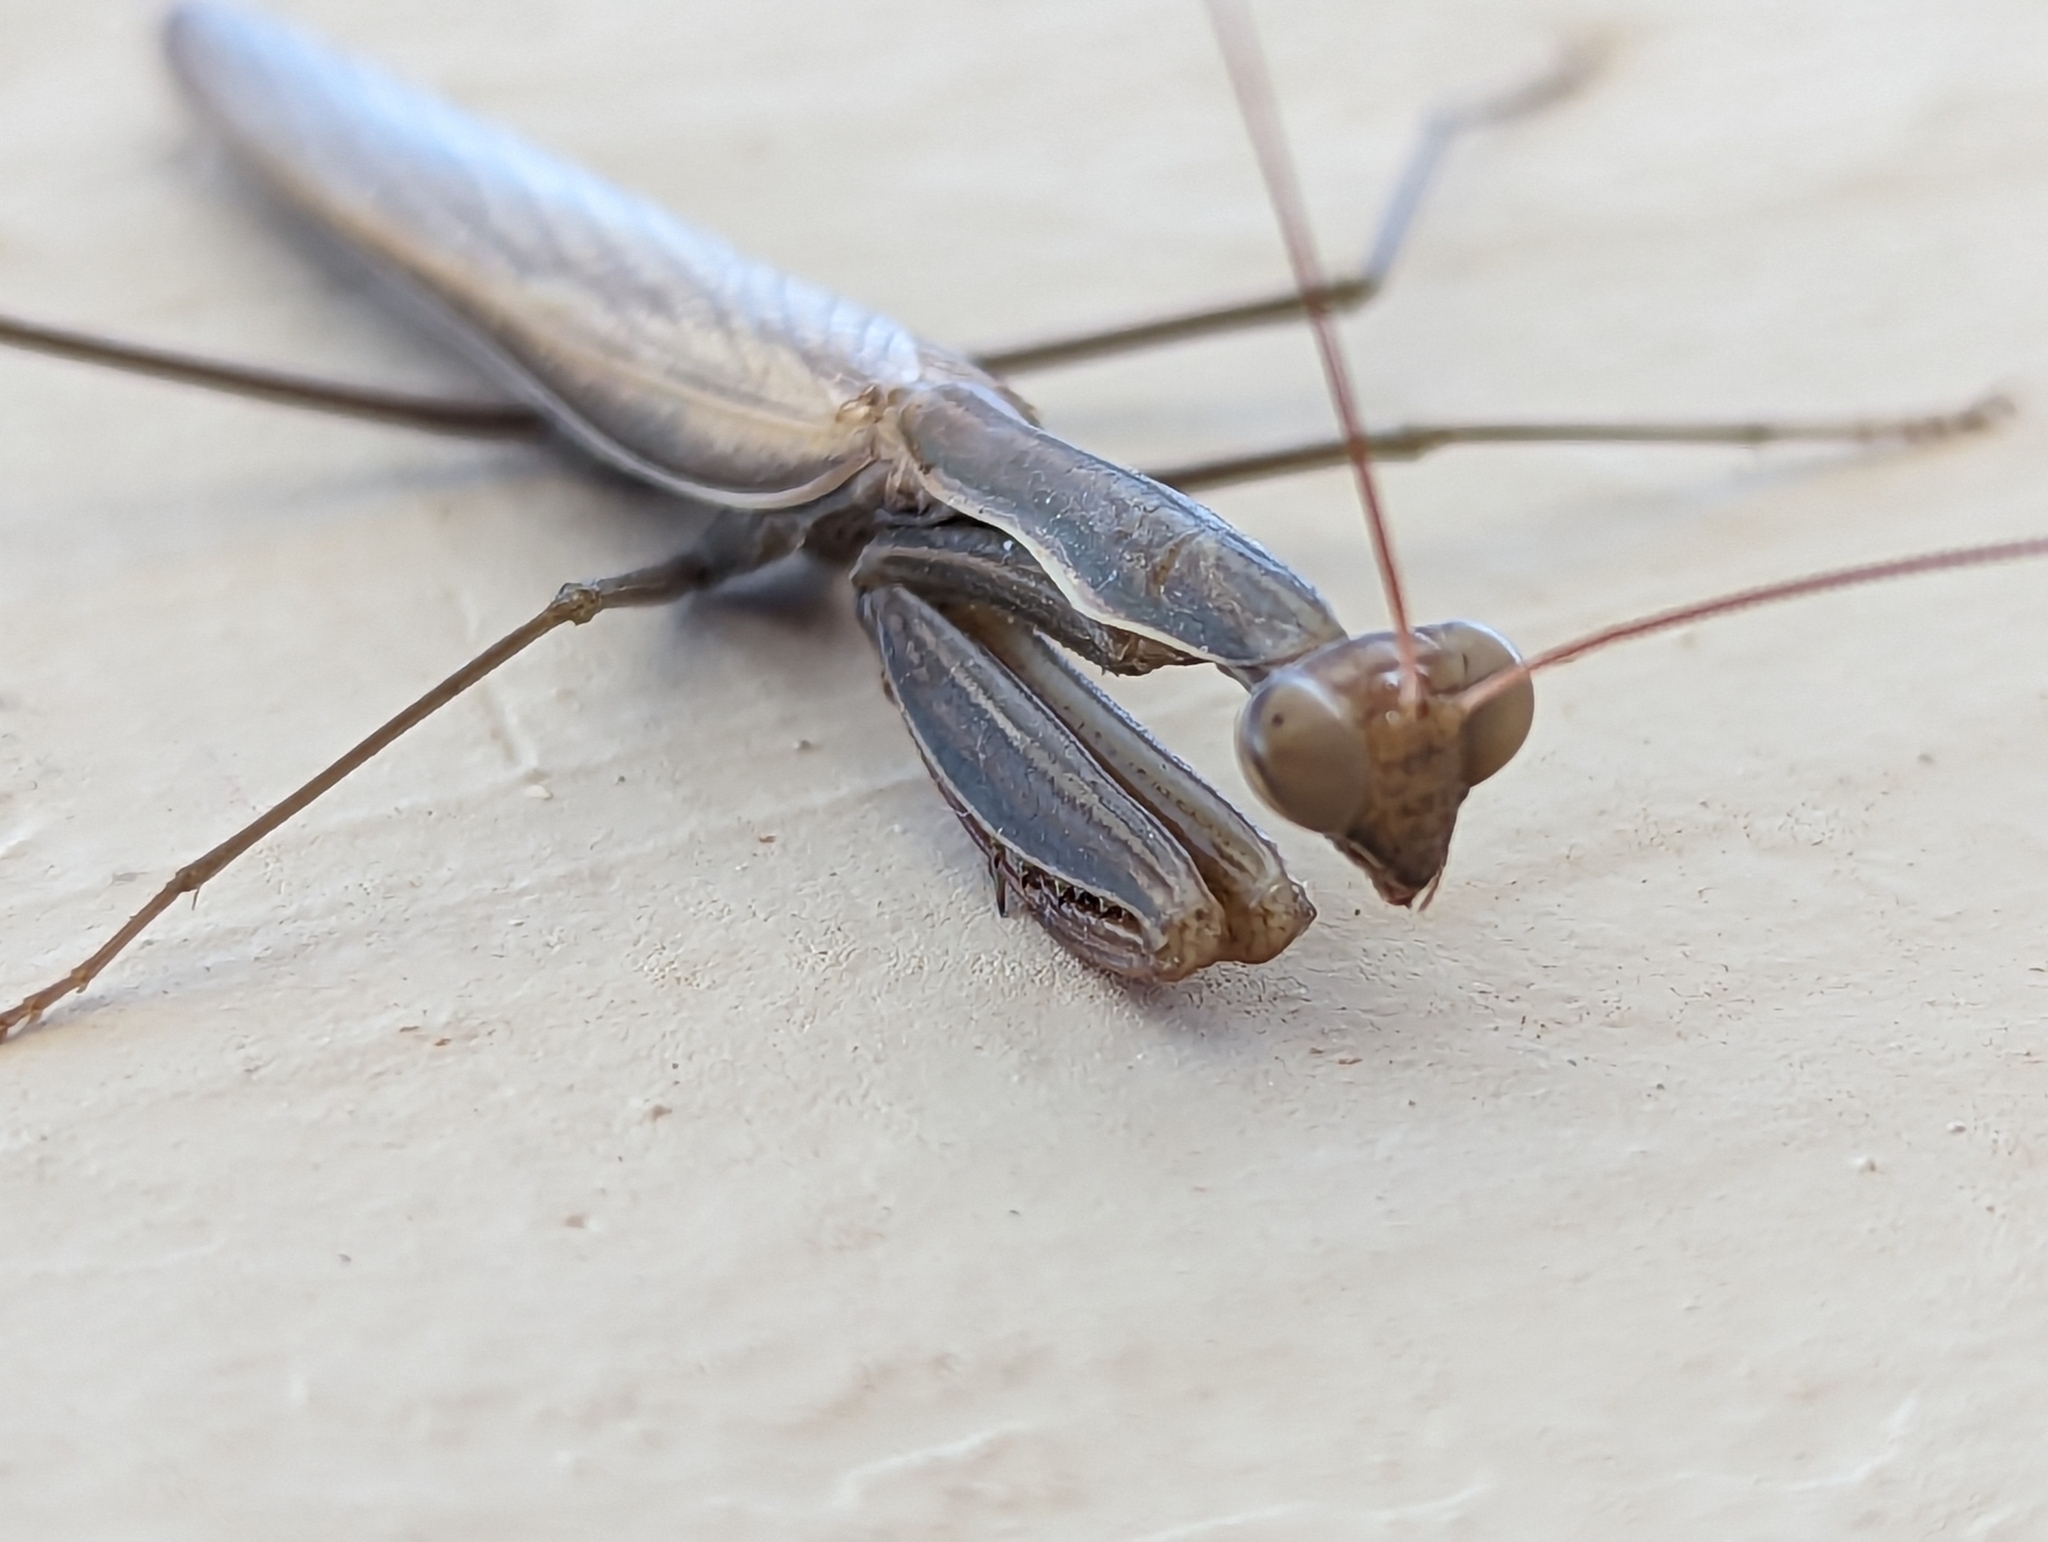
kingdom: Animalia
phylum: Arthropoda
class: Insecta
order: Mantodea
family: Mantidae
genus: Mantis
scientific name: Mantis religiosa
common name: Praying mantis
